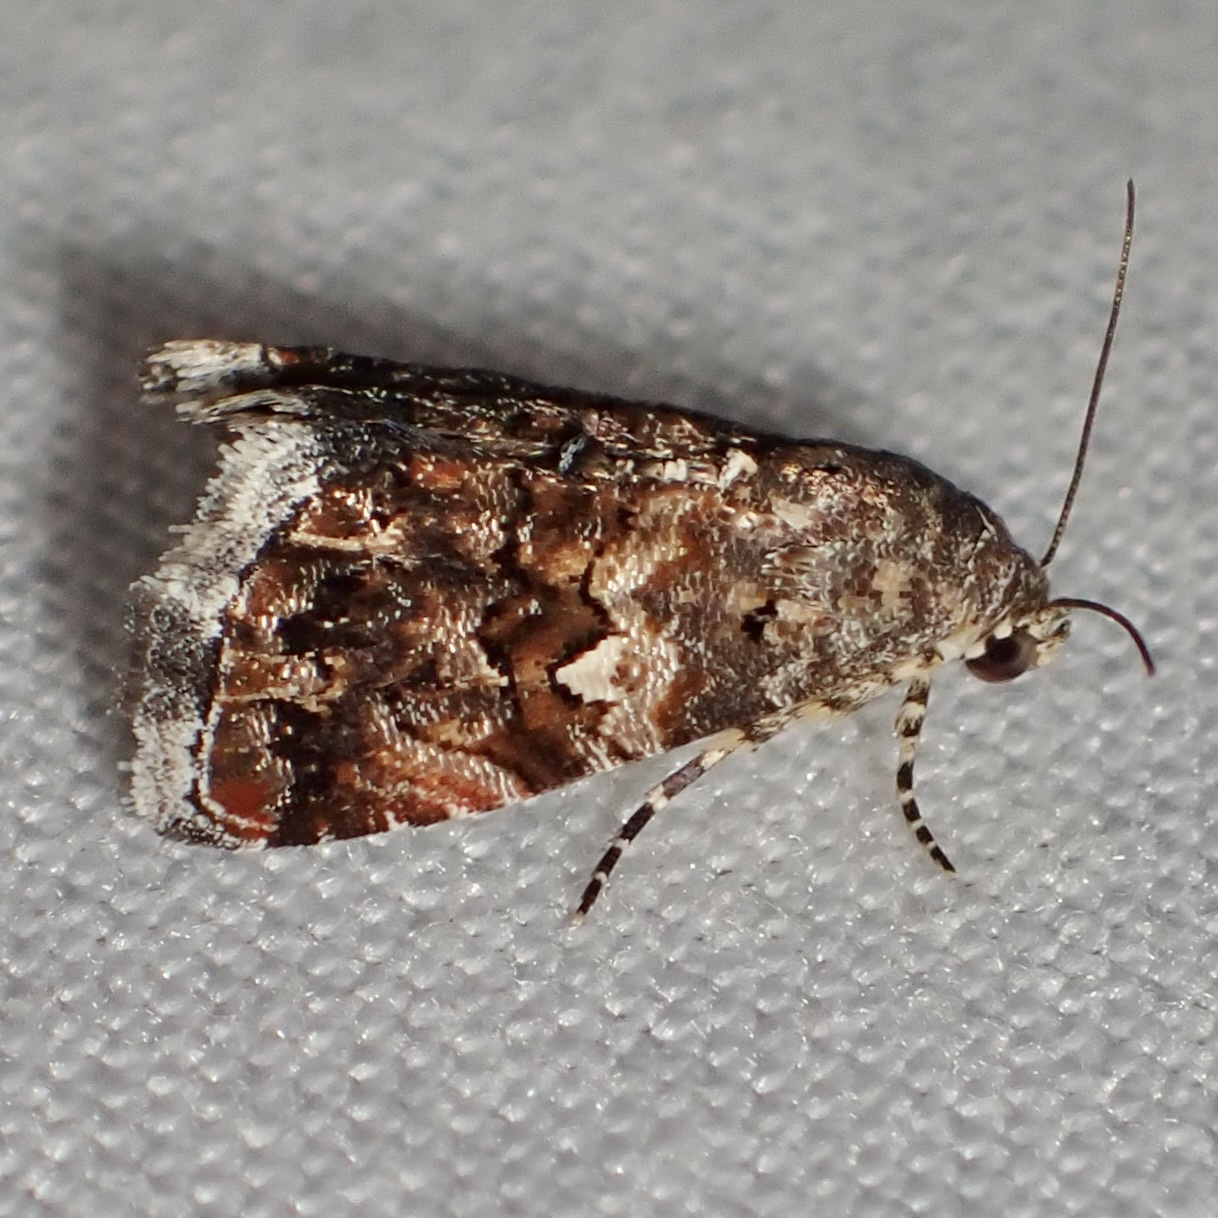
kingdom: Animalia
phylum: Arthropoda
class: Insecta
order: Lepidoptera
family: Noctuidae
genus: Tripudia
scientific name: Tripudia luxuriosa
